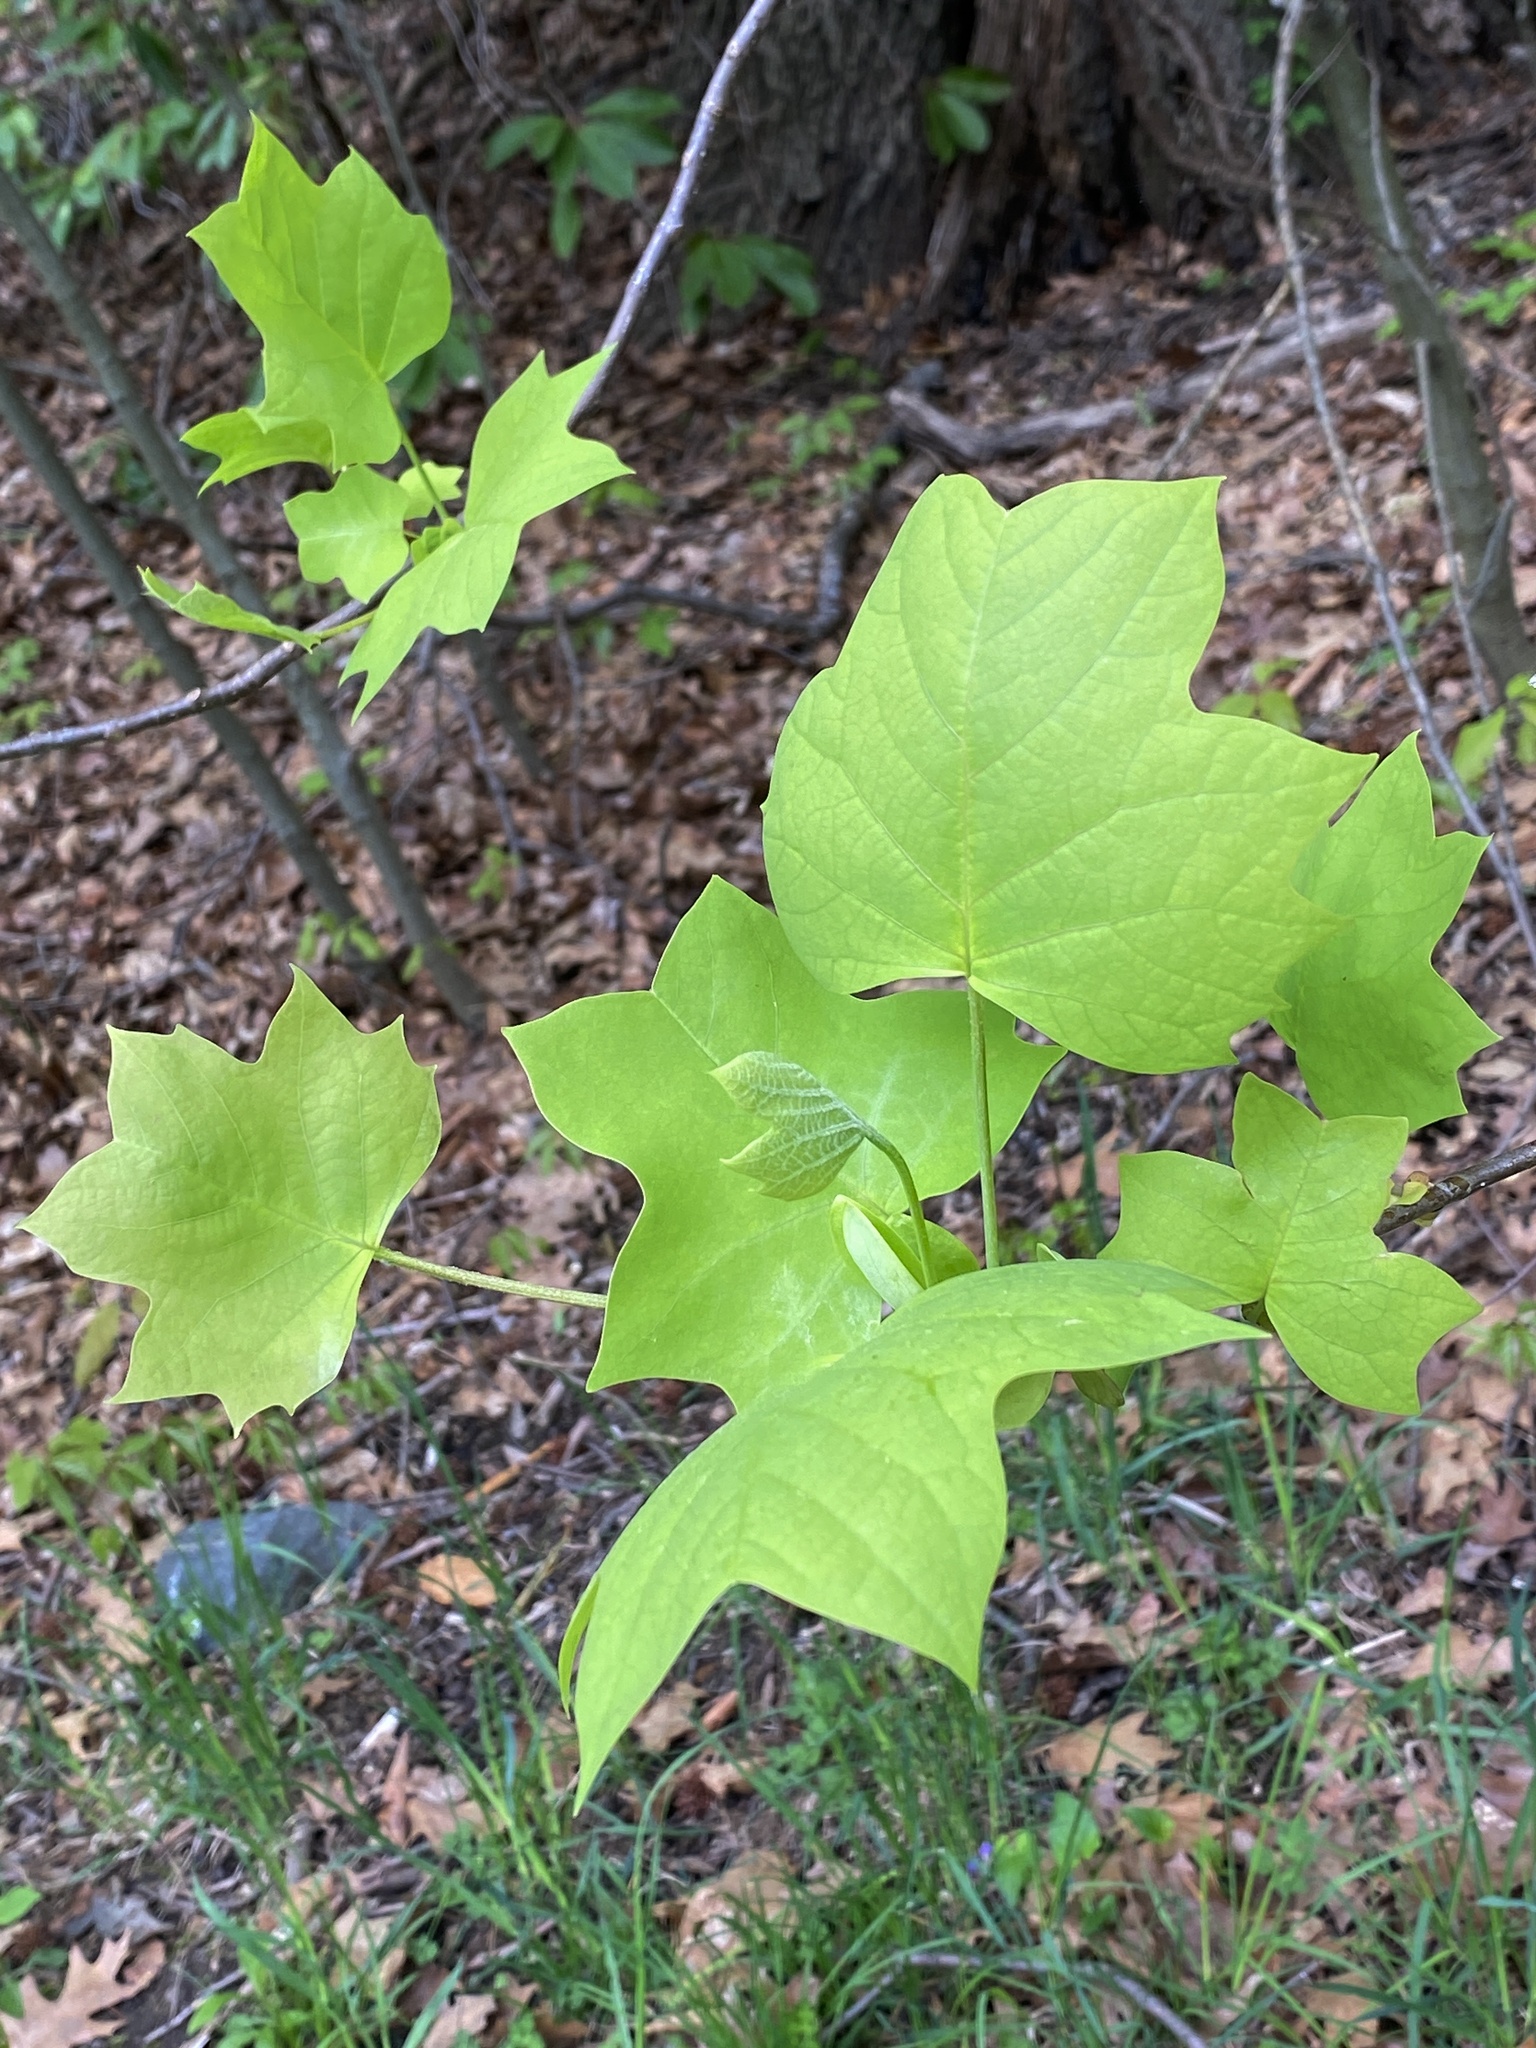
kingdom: Plantae
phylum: Tracheophyta
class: Magnoliopsida
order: Magnoliales
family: Magnoliaceae
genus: Liriodendron
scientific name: Liriodendron tulipifera
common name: Tulip tree
